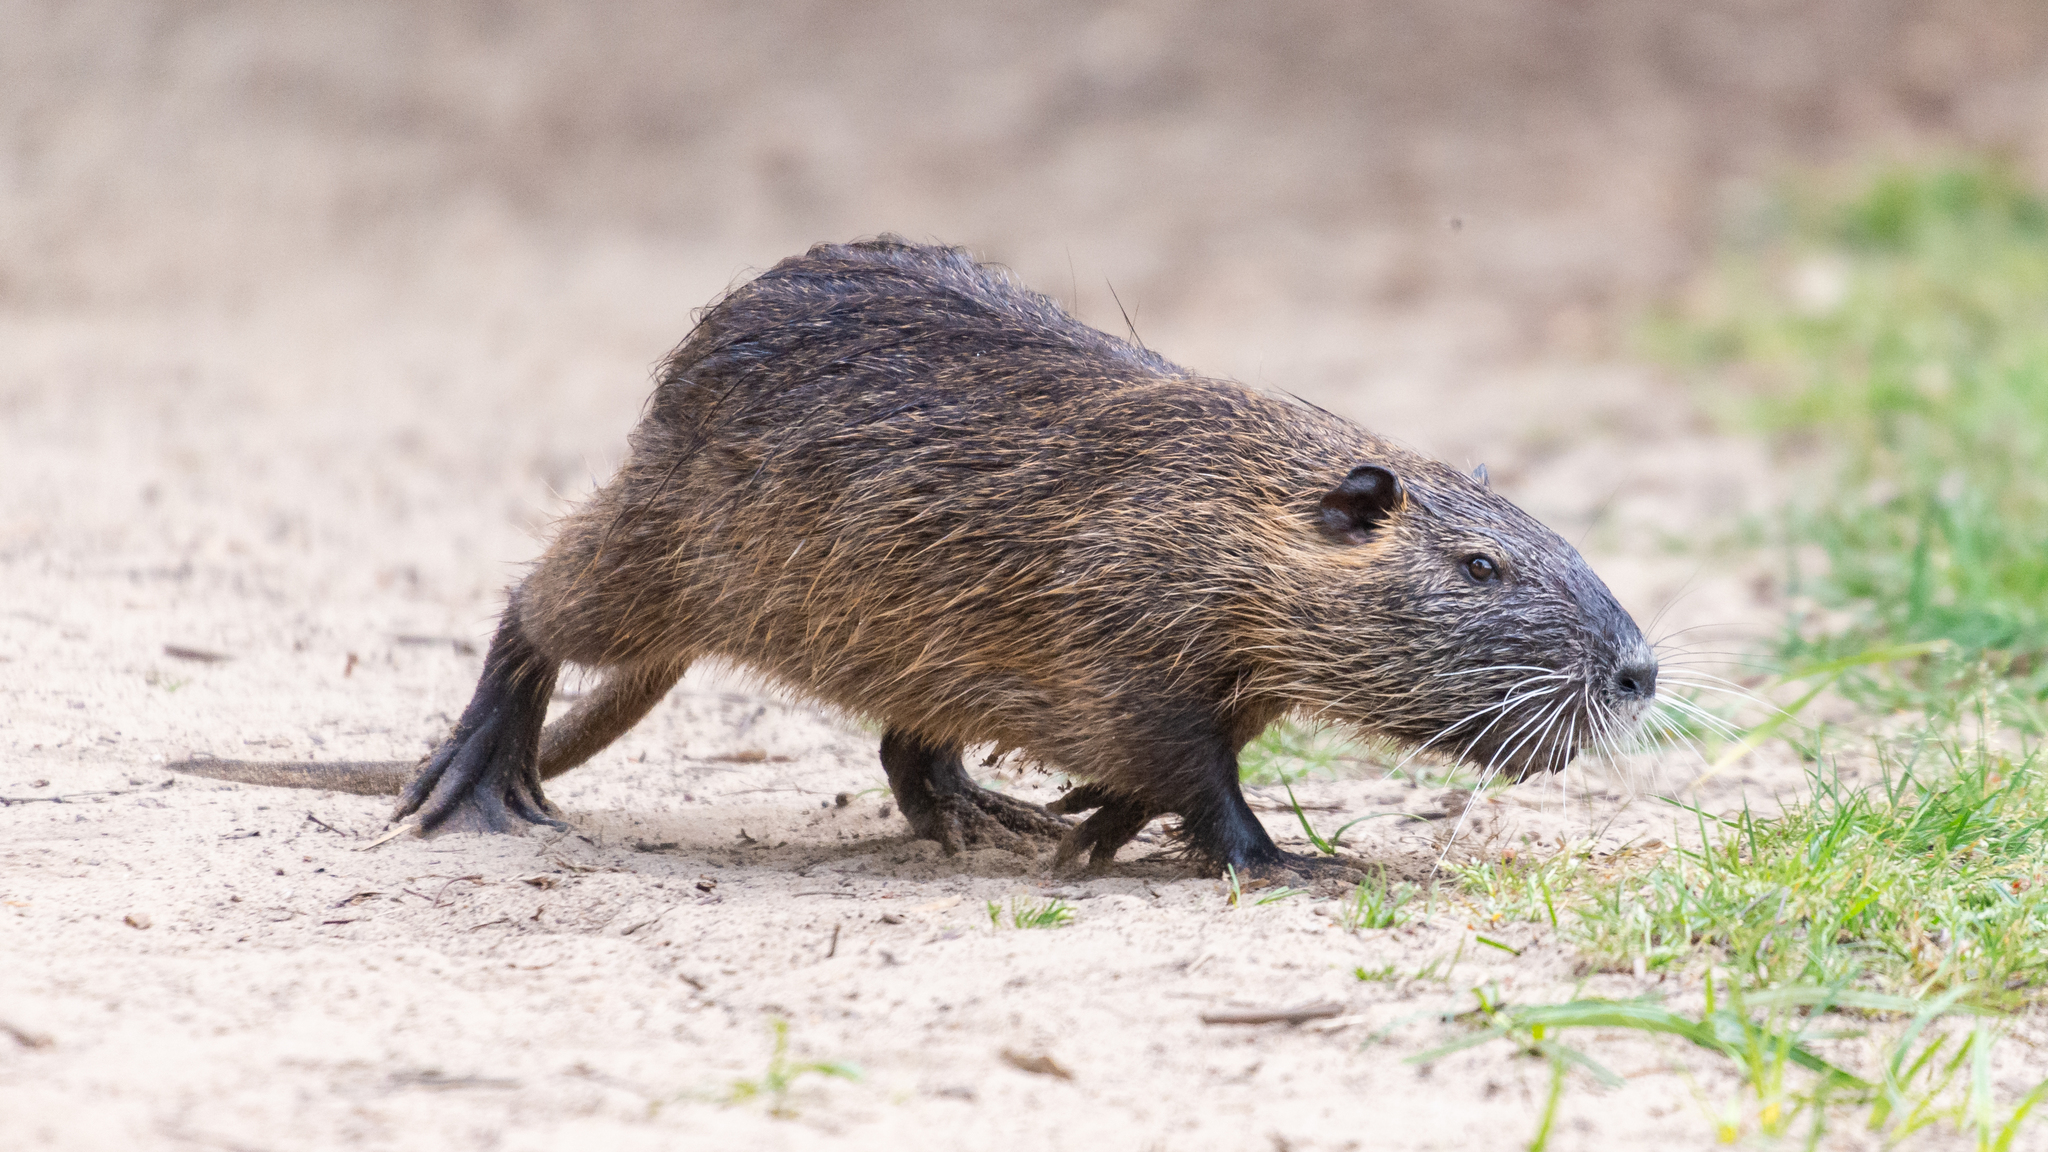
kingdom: Animalia
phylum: Chordata
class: Mammalia
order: Rodentia
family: Myocastoridae
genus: Myocastor
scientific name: Myocastor coypus
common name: Coypu
